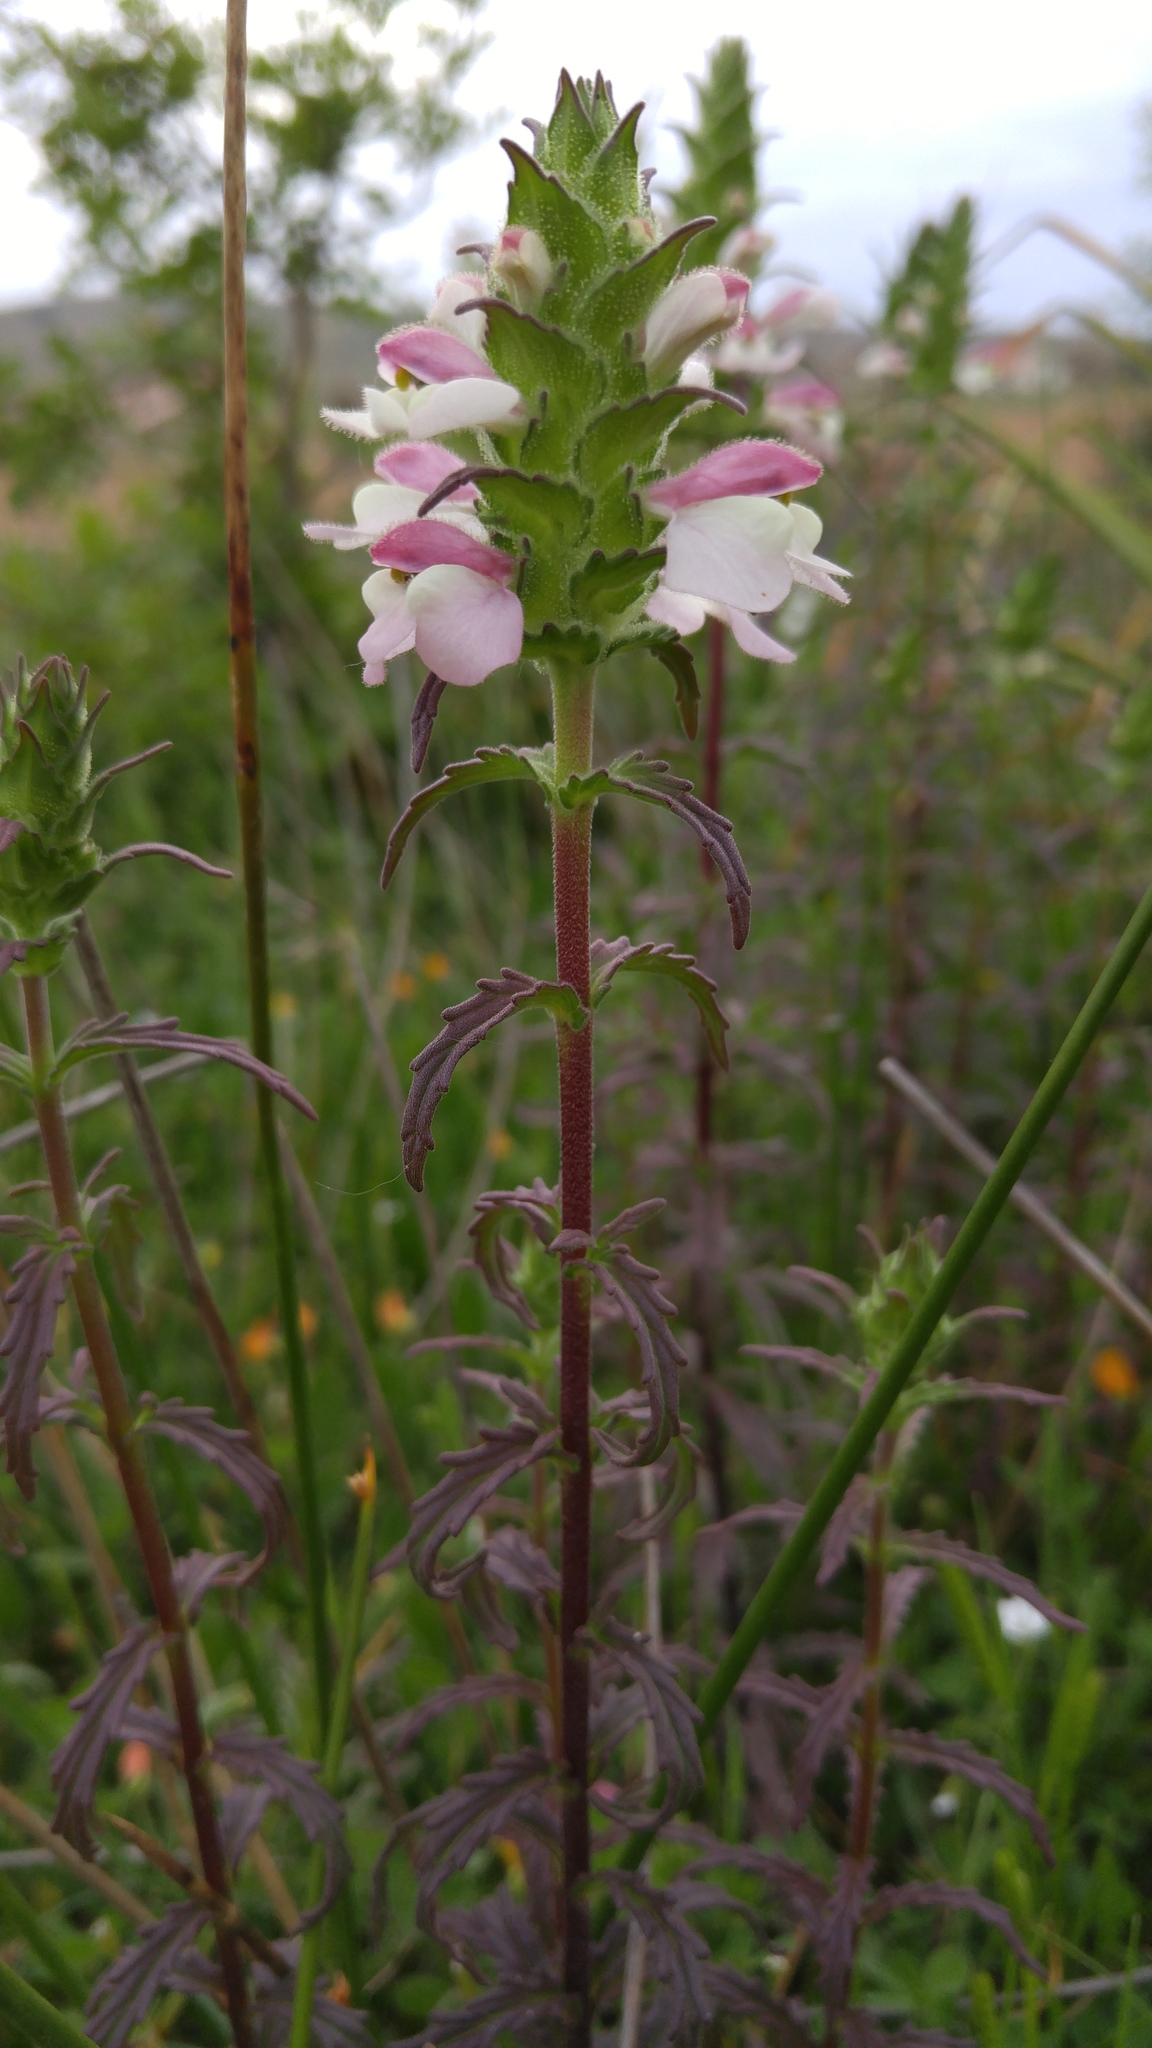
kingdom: Plantae
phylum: Tracheophyta
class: Magnoliopsida
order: Lamiales
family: Orobanchaceae
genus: Bellardia
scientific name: Bellardia trixago
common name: Mediterranean lineseed
